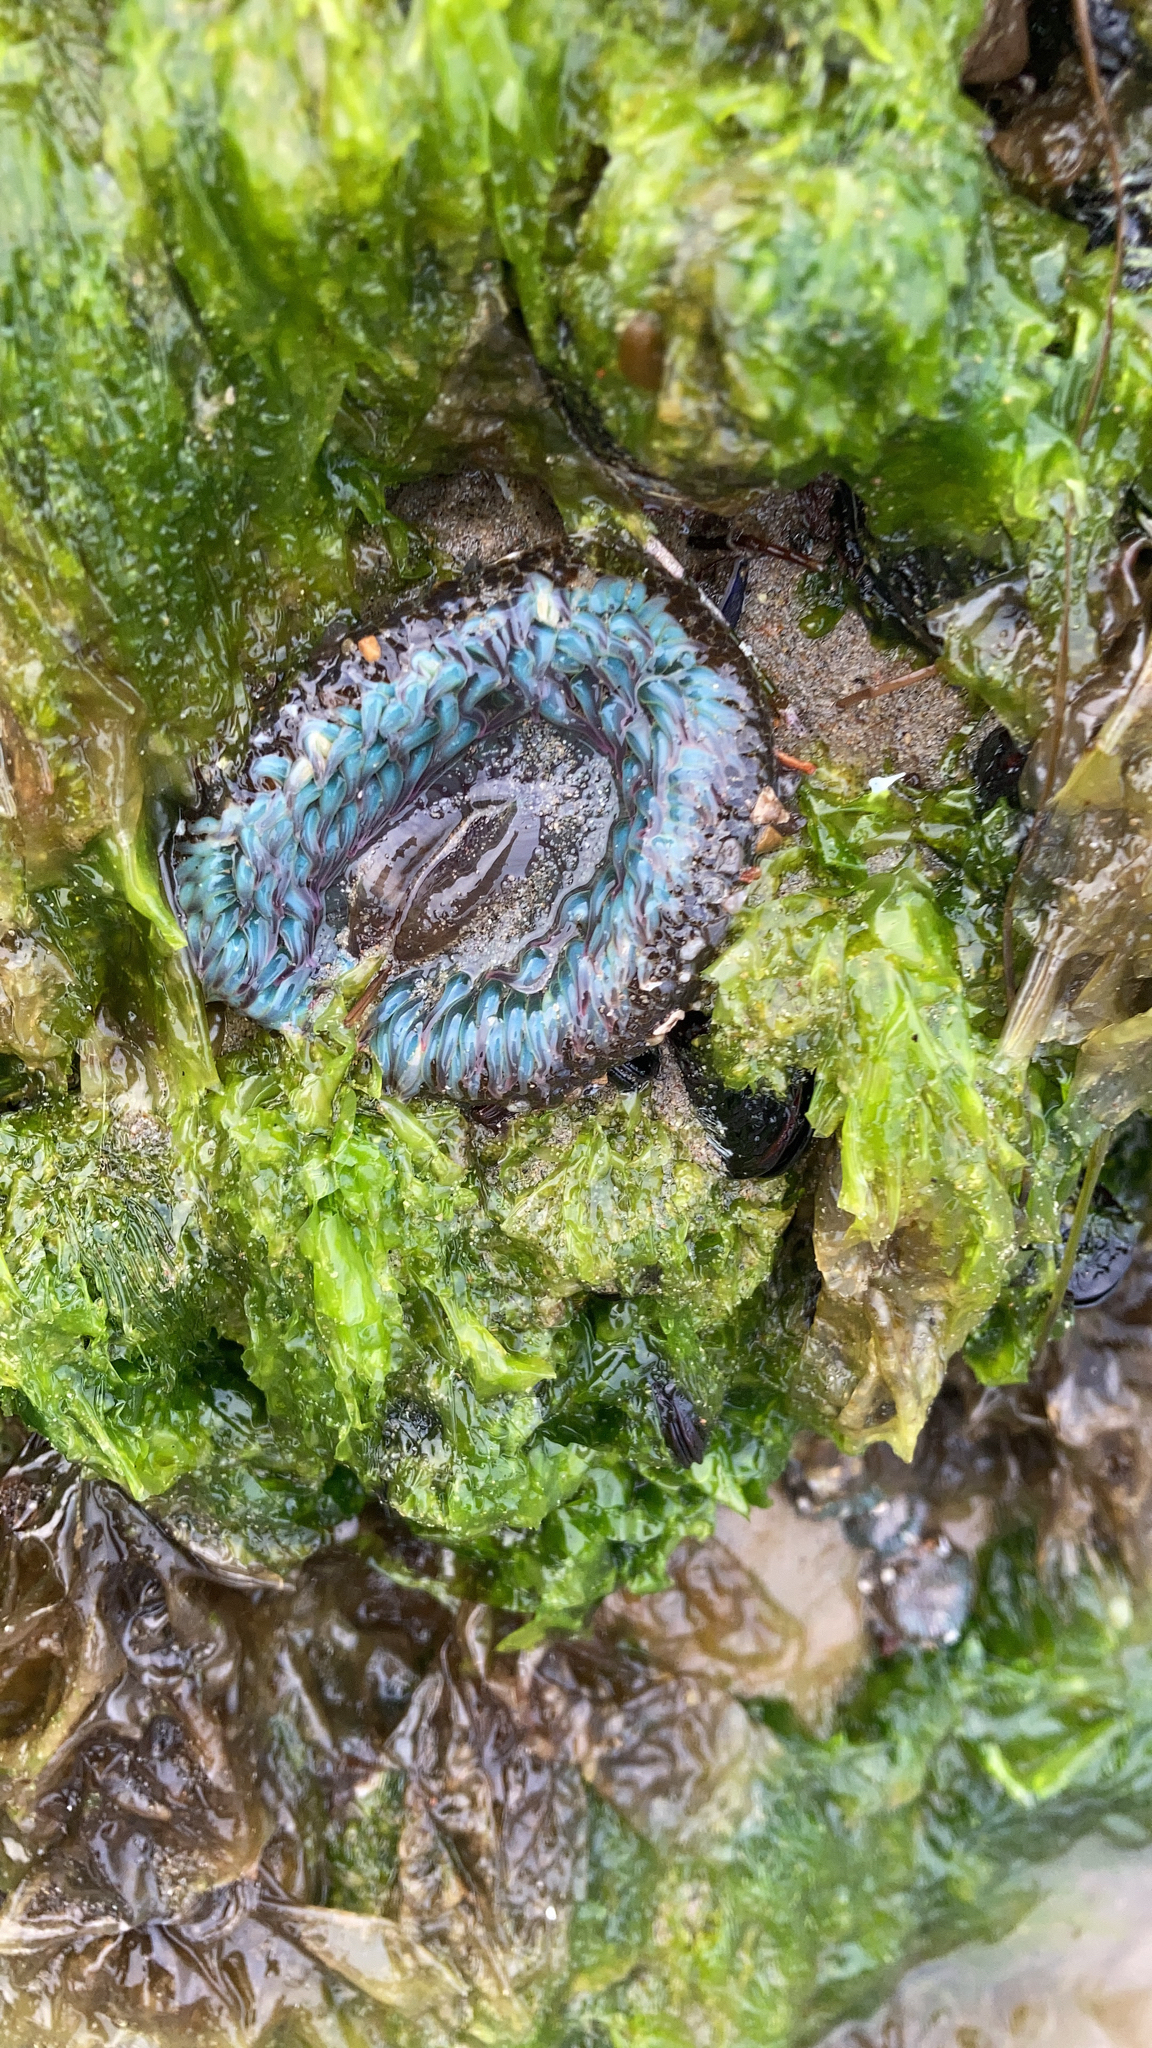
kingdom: Animalia
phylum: Cnidaria
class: Anthozoa
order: Actiniaria
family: Actiniidae
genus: Anthopleura
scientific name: Anthopleura sola
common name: Sun anemone
